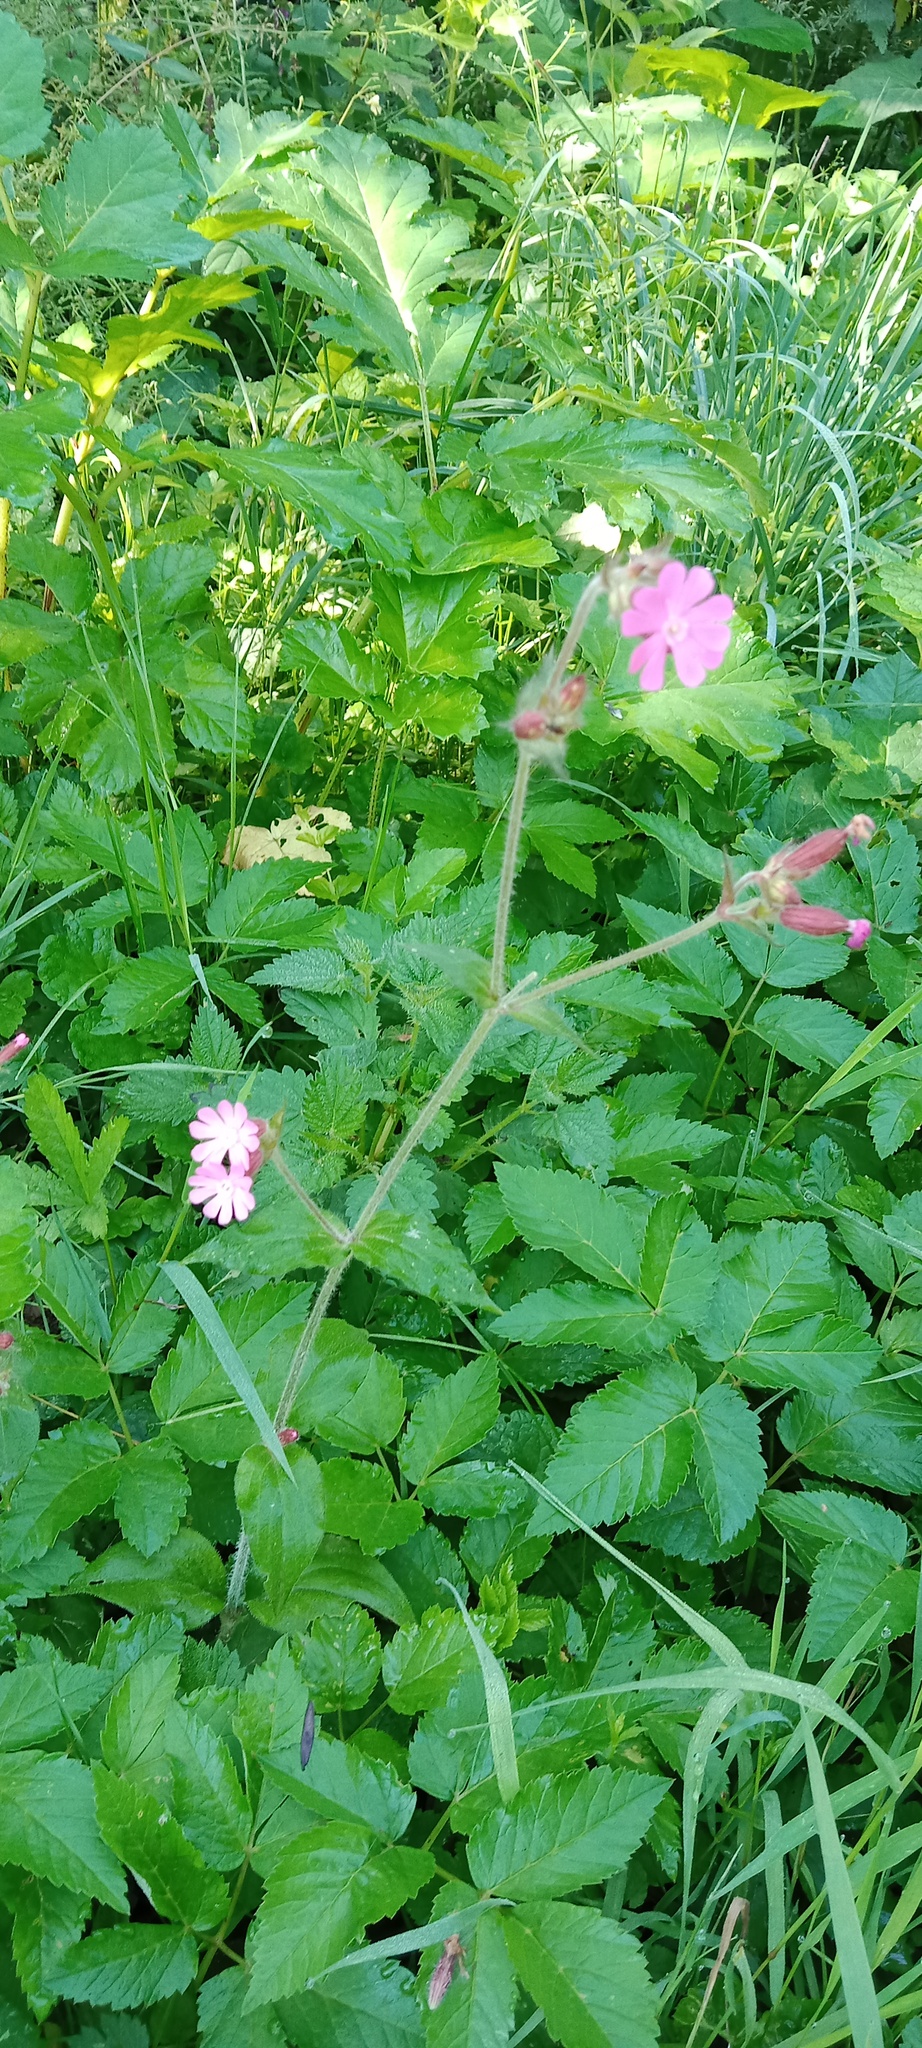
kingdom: Plantae
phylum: Tracheophyta
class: Magnoliopsida
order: Caryophyllales
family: Caryophyllaceae
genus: Silene
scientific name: Silene dioica
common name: Red campion
